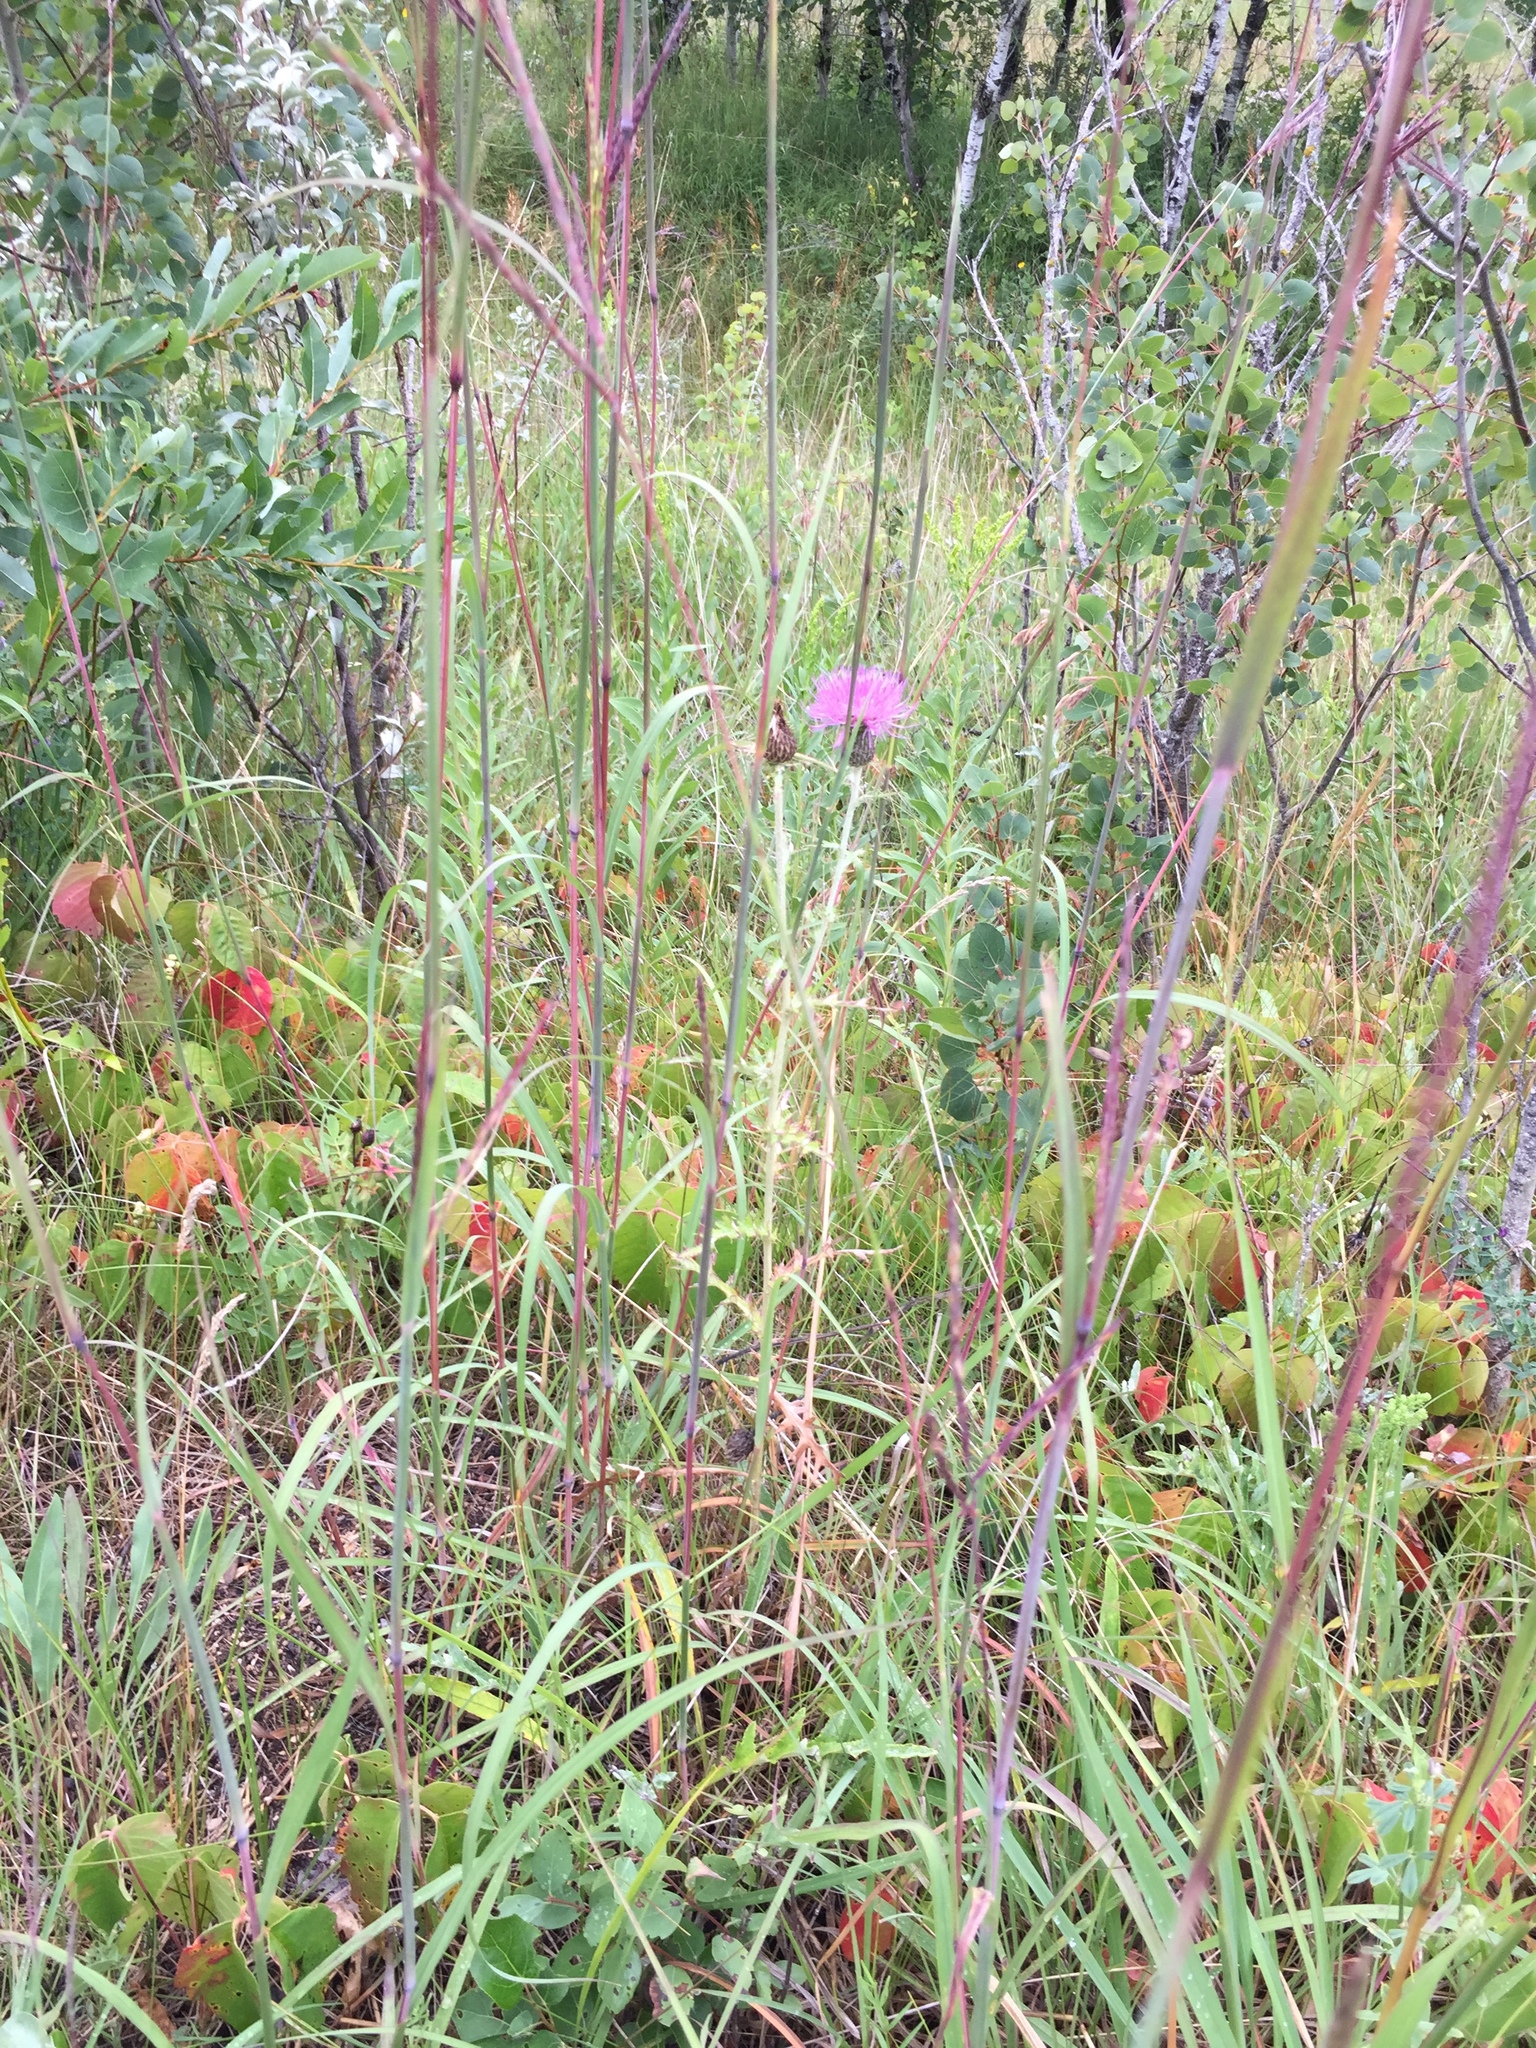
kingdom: Plantae
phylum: Tracheophyta
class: Magnoliopsida
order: Asterales
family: Asteraceae
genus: Cirsium
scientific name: Cirsium flodmanii
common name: Flodman's thistle
